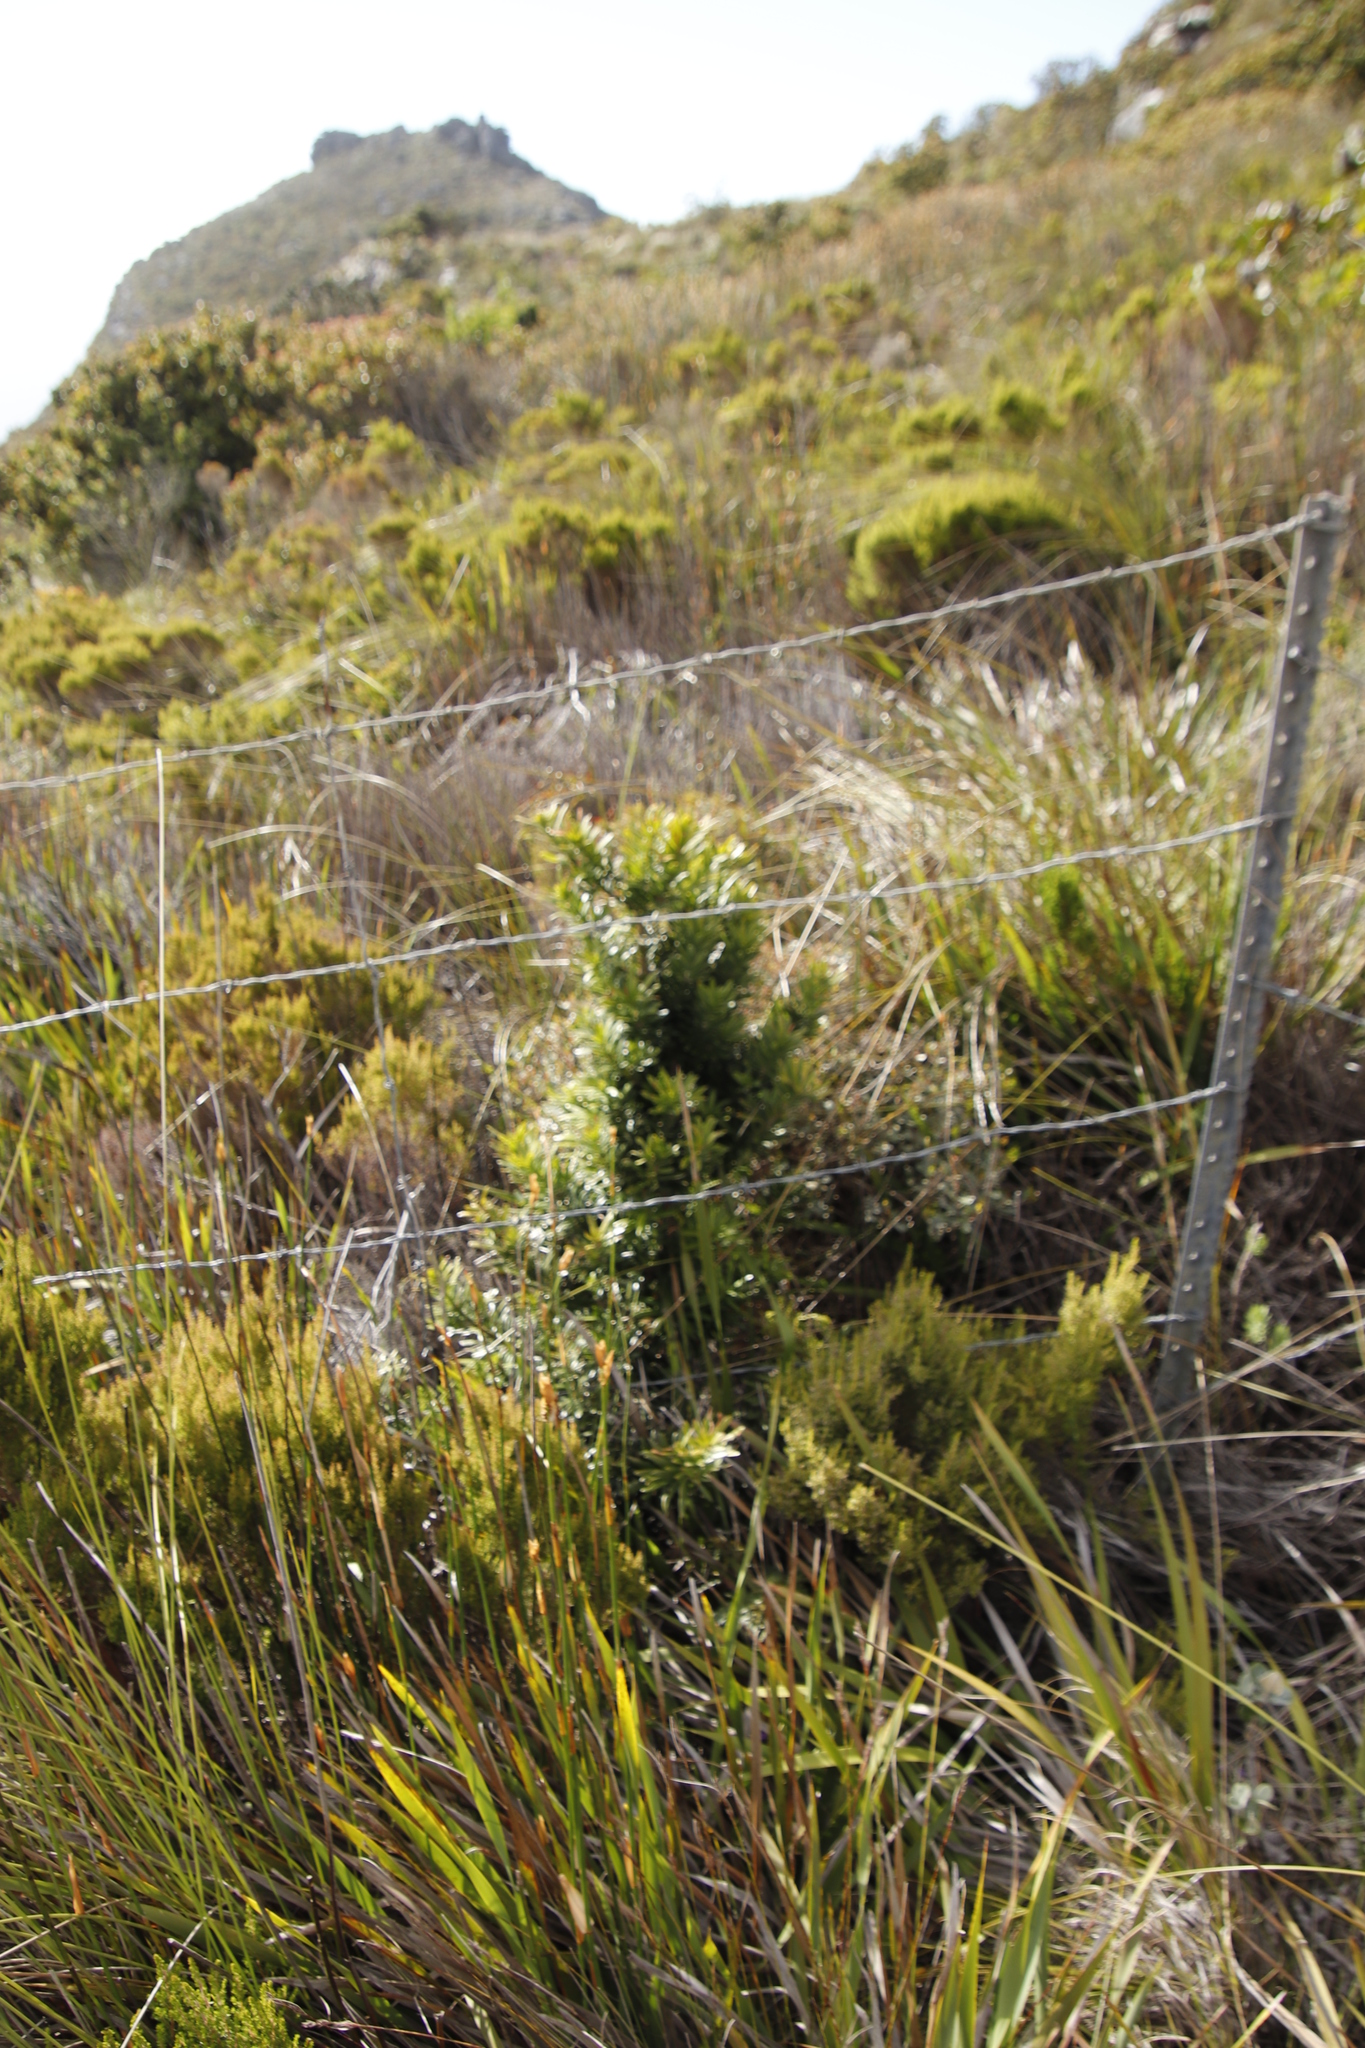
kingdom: Plantae
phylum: Tracheophyta
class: Pinopsida
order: Pinales
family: Podocarpaceae
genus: Podocarpus
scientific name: Podocarpus latifolius
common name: True yellowwood
